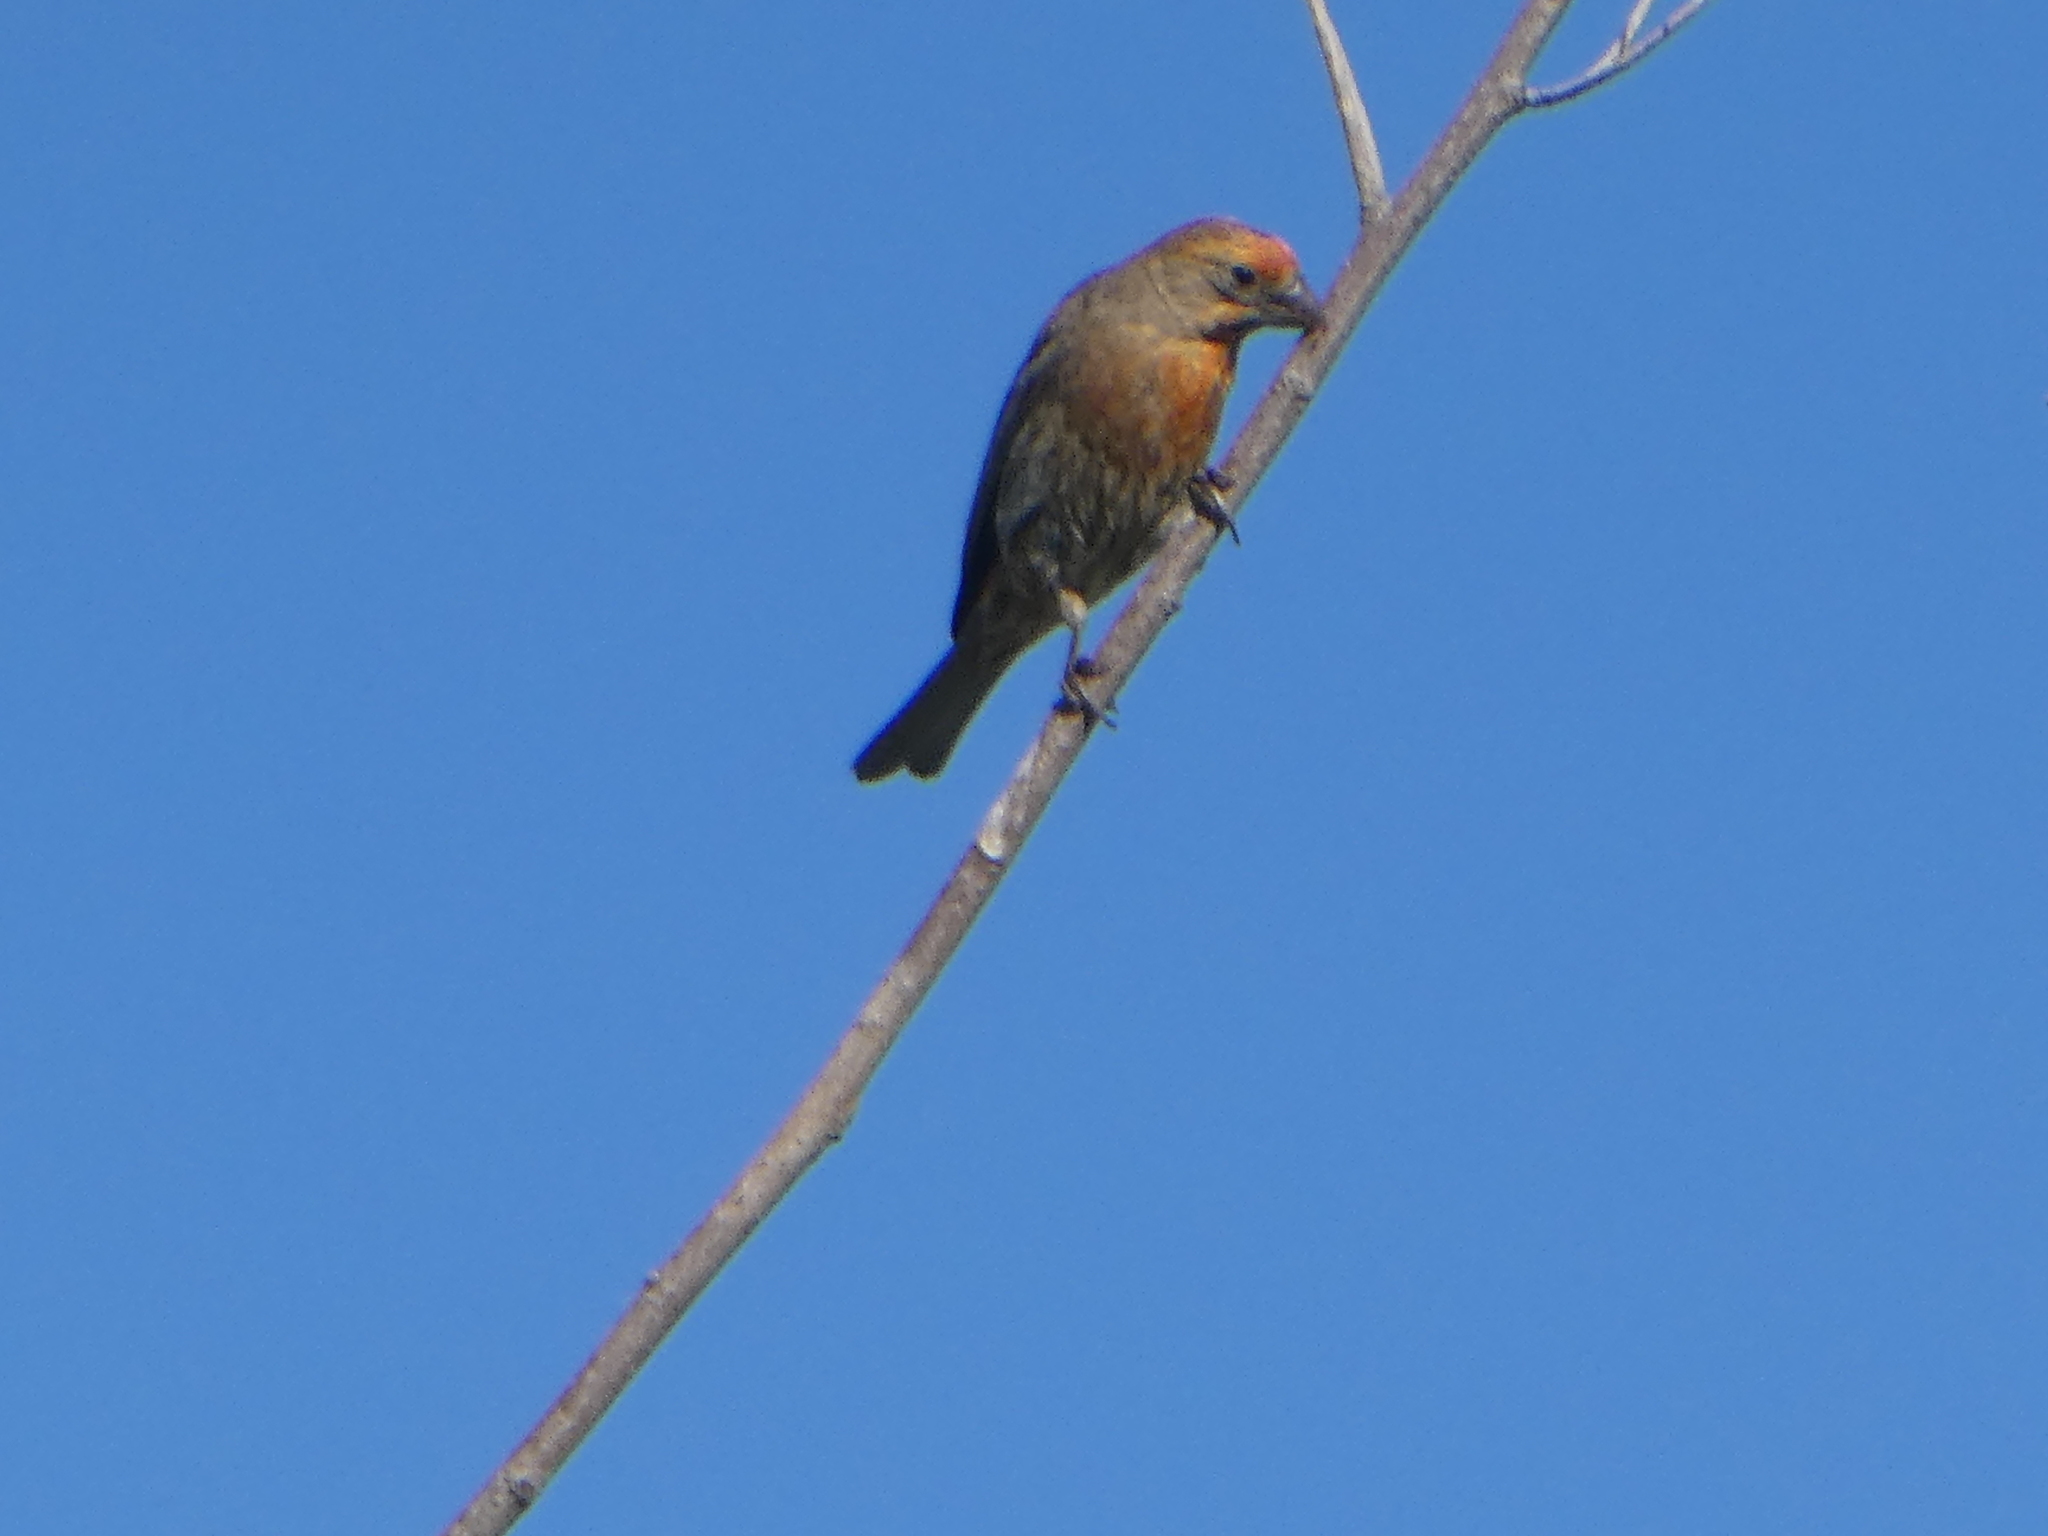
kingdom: Animalia
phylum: Chordata
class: Aves
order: Passeriformes
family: Fringillidae
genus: Haemorhous
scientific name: Haemorhous mexicanus
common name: House finch
